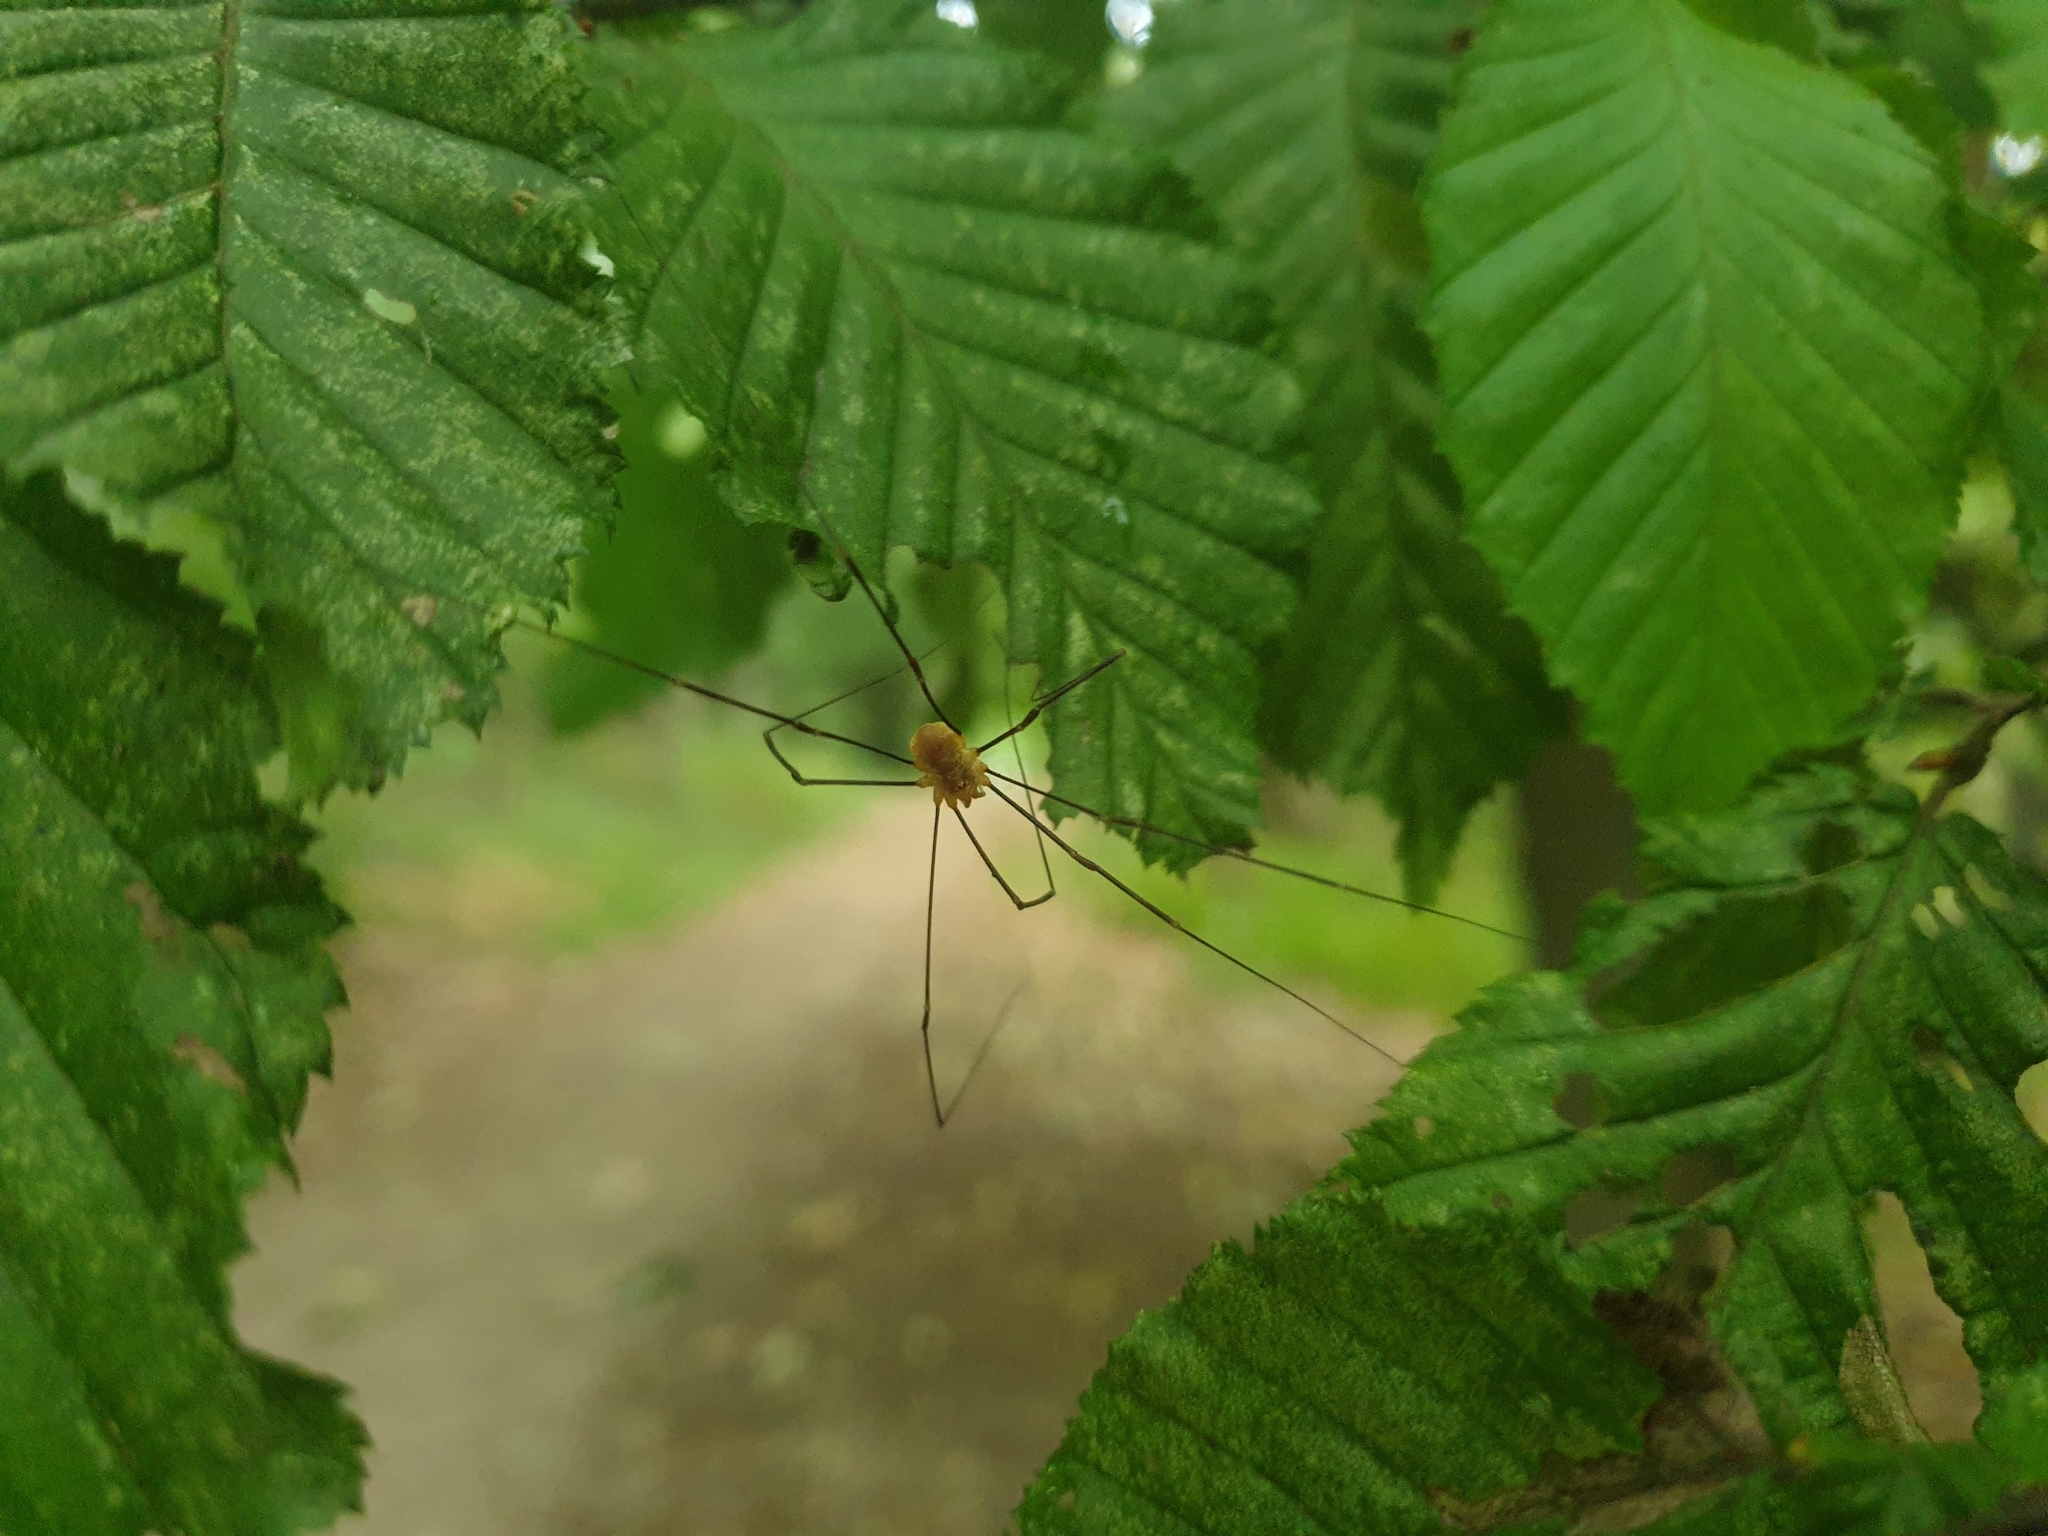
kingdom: Animalia
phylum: Arthropoda
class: Arachnida
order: Opiliones
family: Phalangiidae
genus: Opilio
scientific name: Opilio canestrinii
